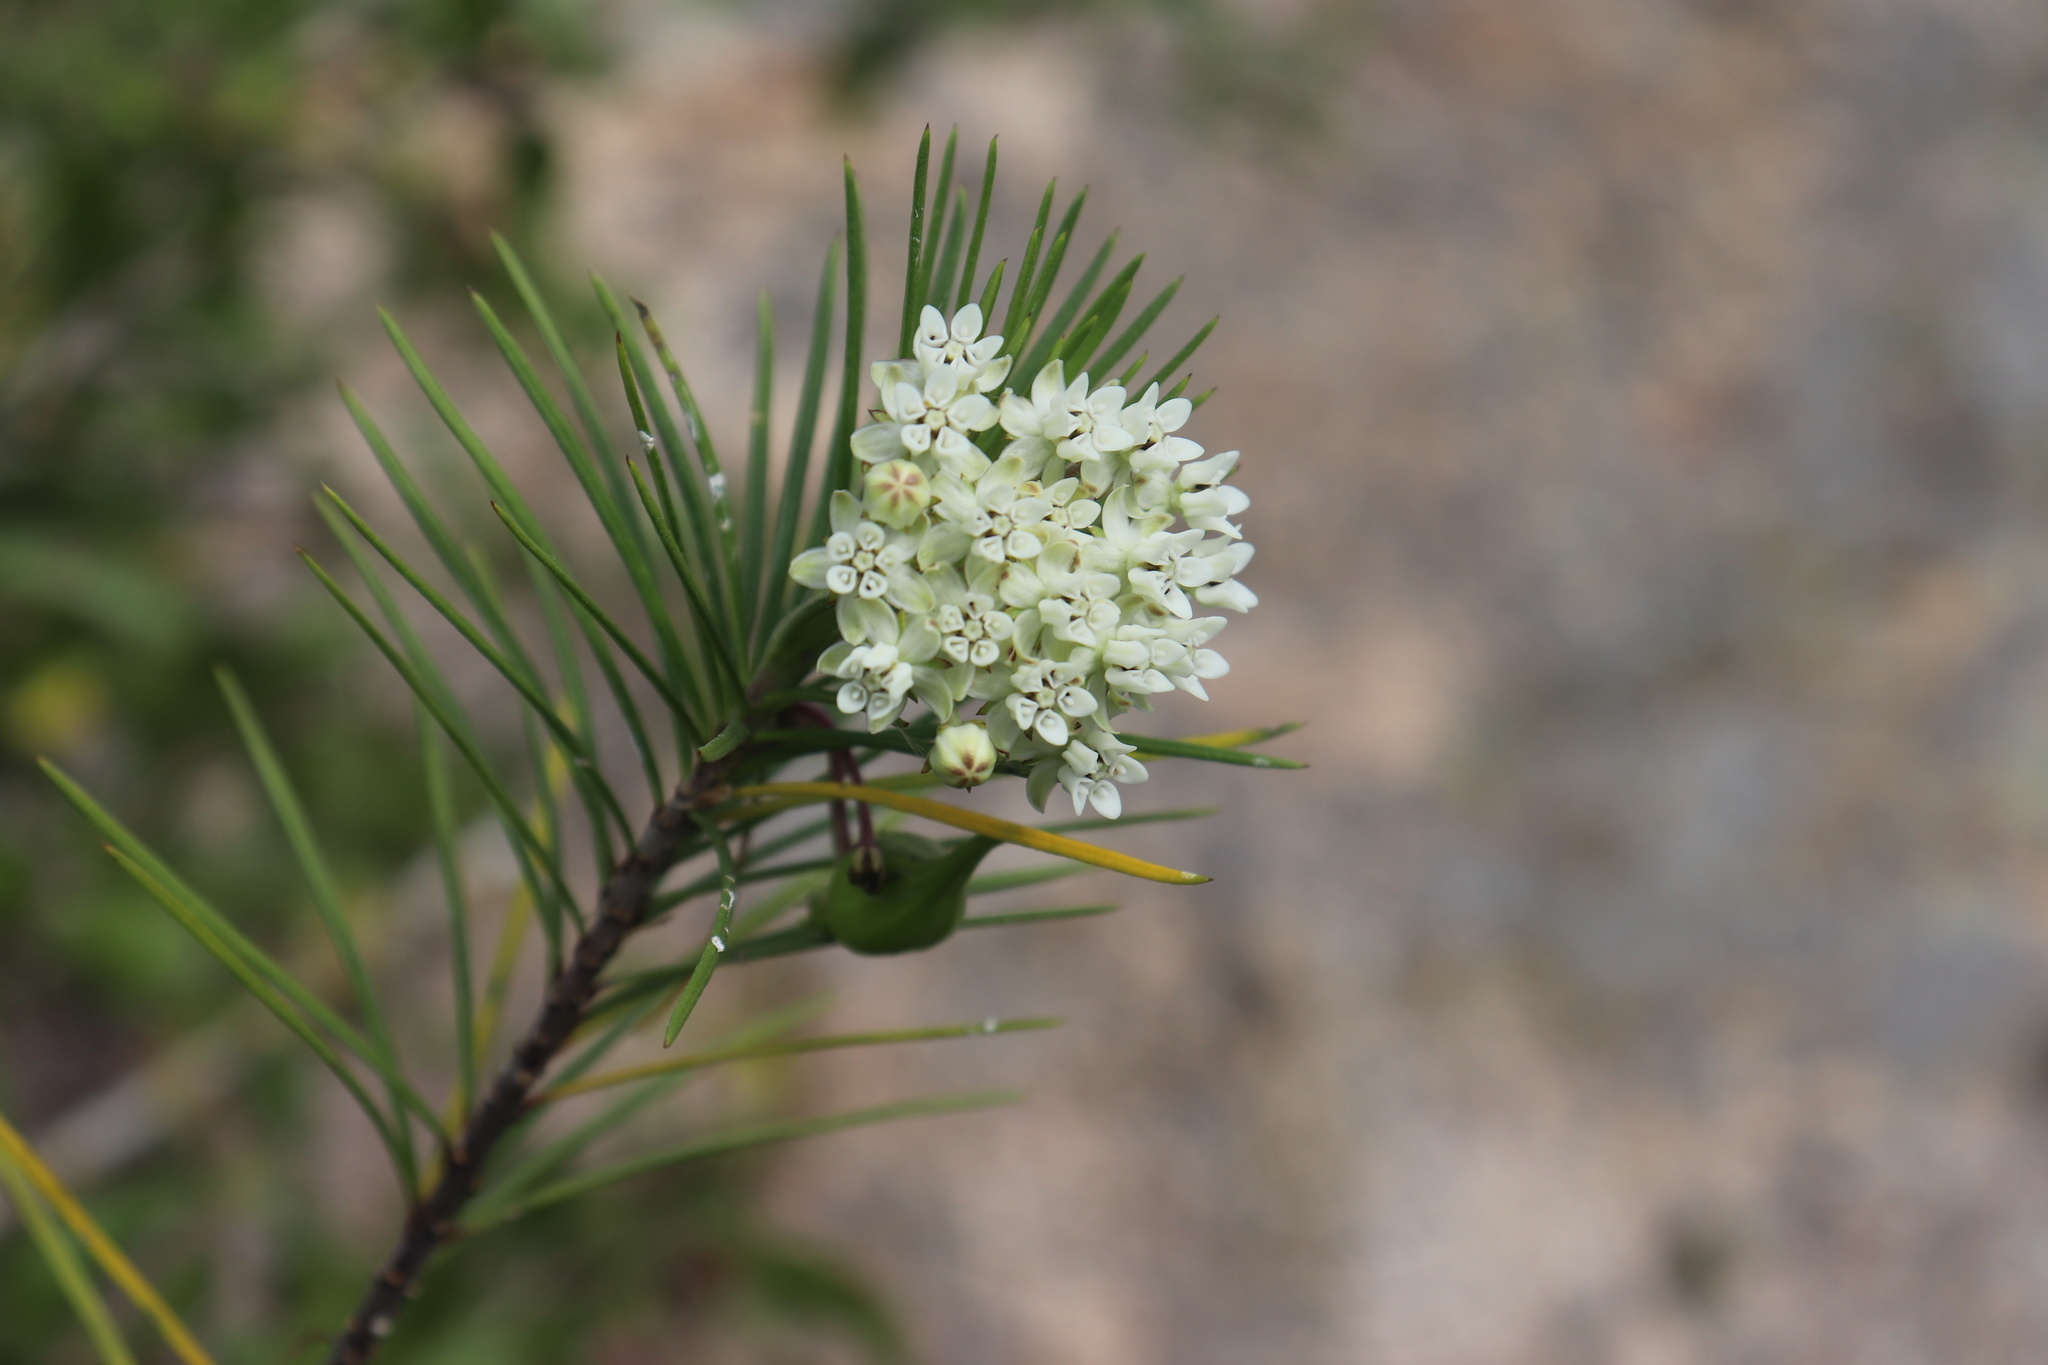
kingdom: Plantae
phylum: Tracheophyta
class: Magnoliopsida
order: Gentianales
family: Apocynaceae
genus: Asclepias
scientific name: Asclepias linaria
